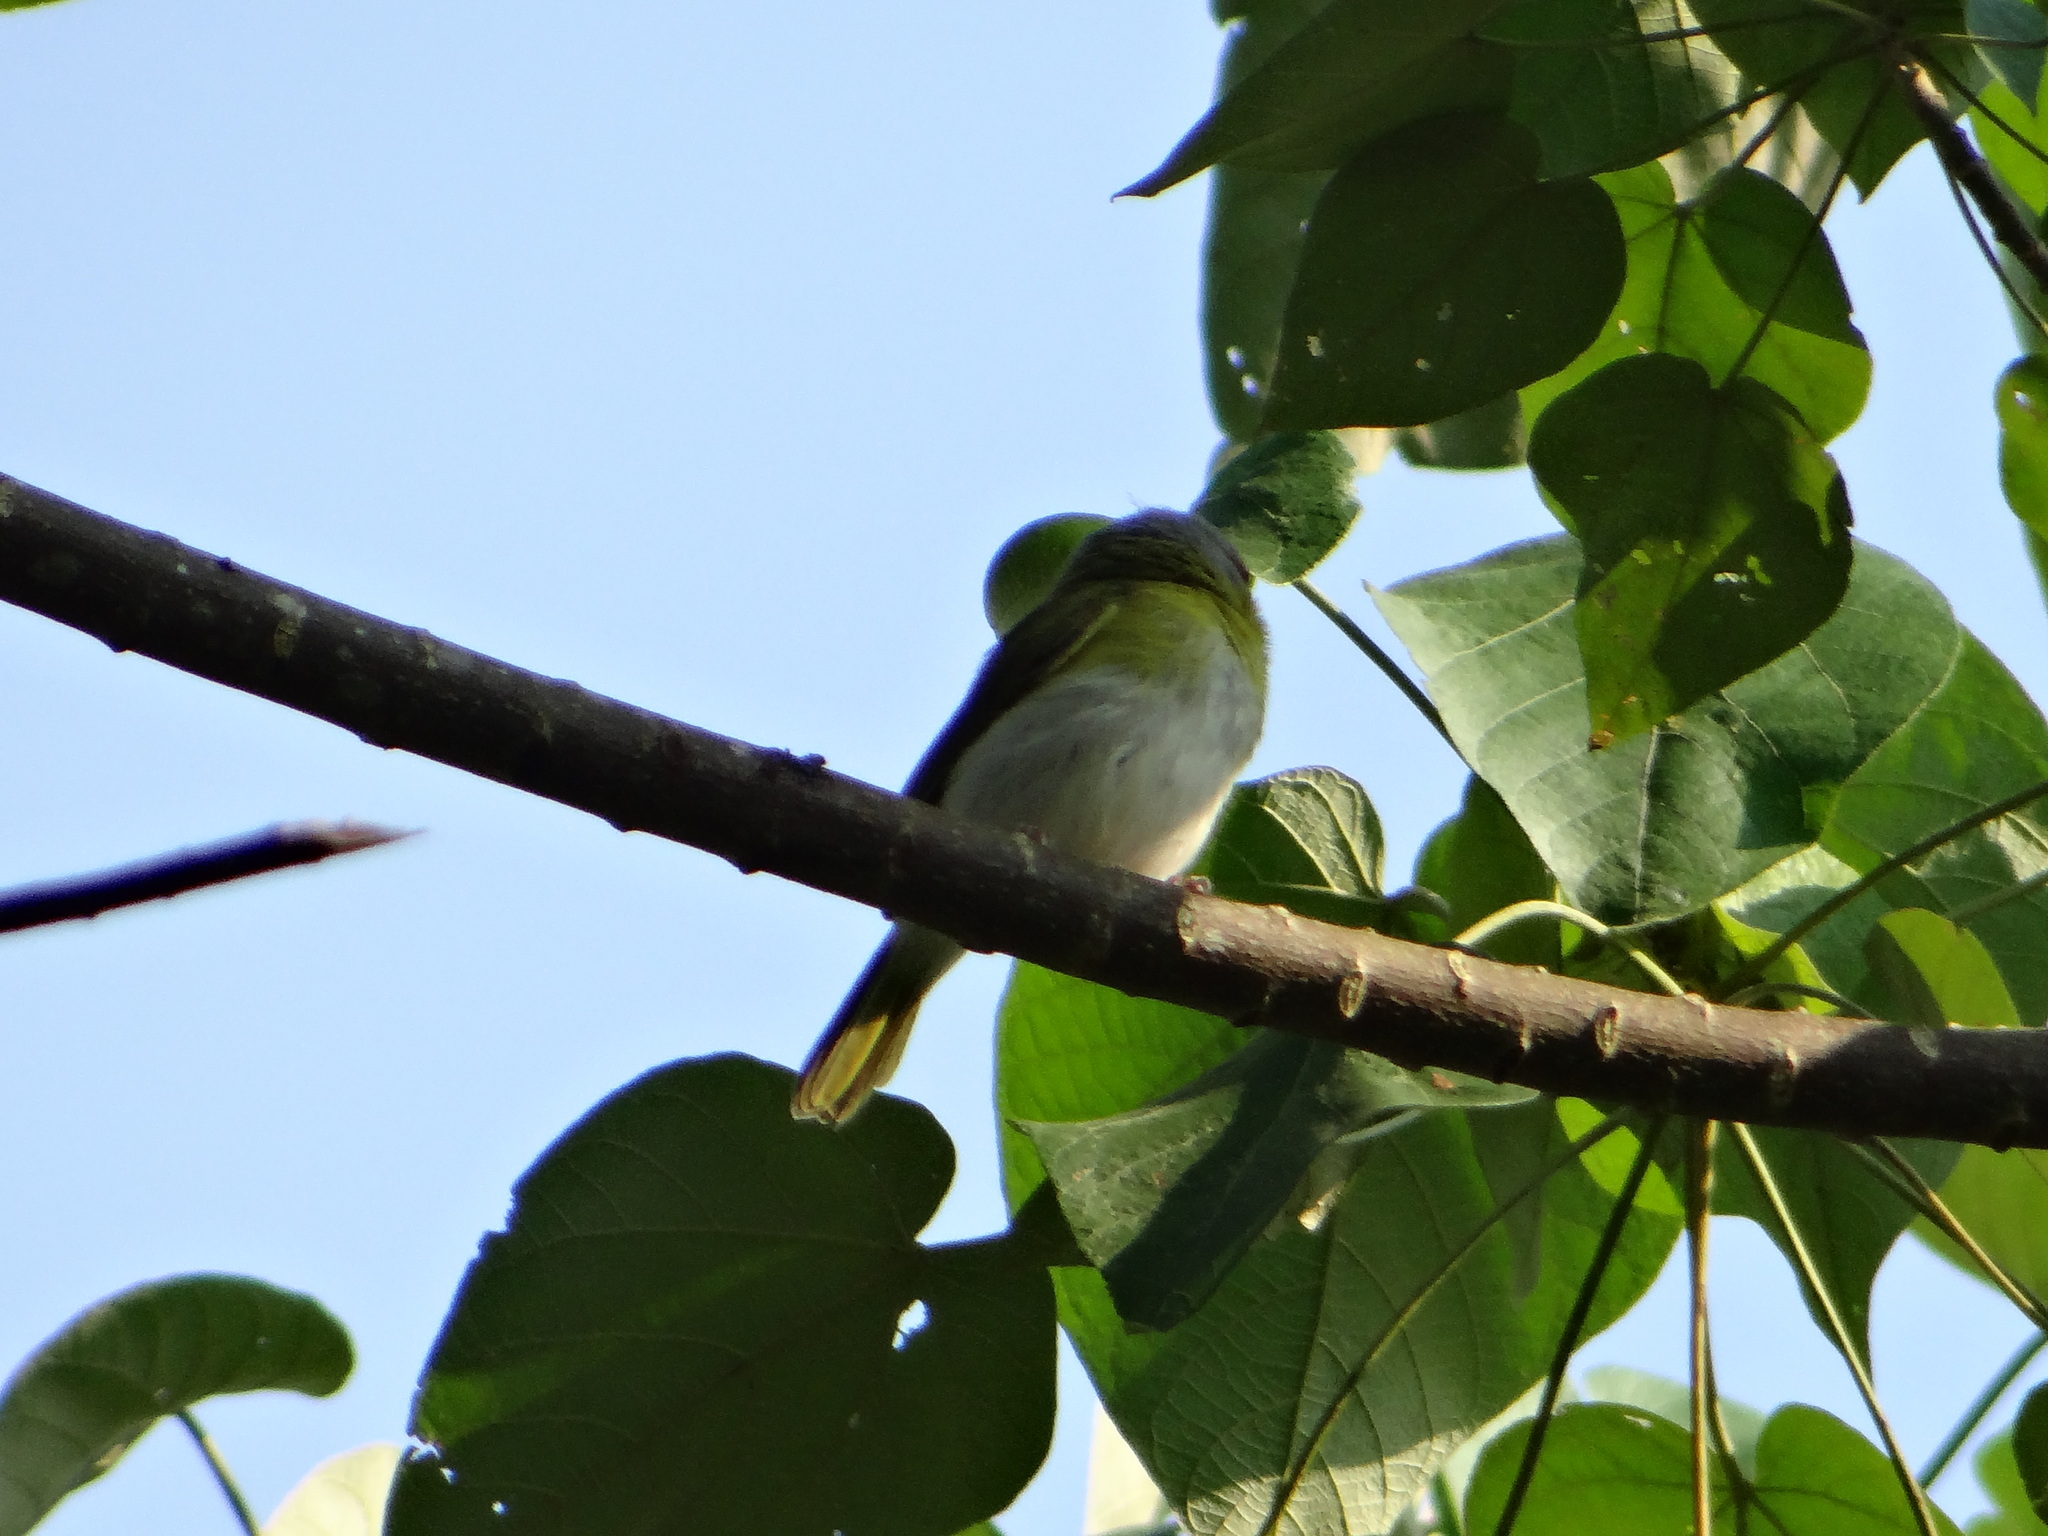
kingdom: Animalia
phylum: Chordata
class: Aves
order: Passeriformes
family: Vireonidae
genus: Cyclarhis
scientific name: Cyclarhis gujanensis
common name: Rufous-browed peppershrike
